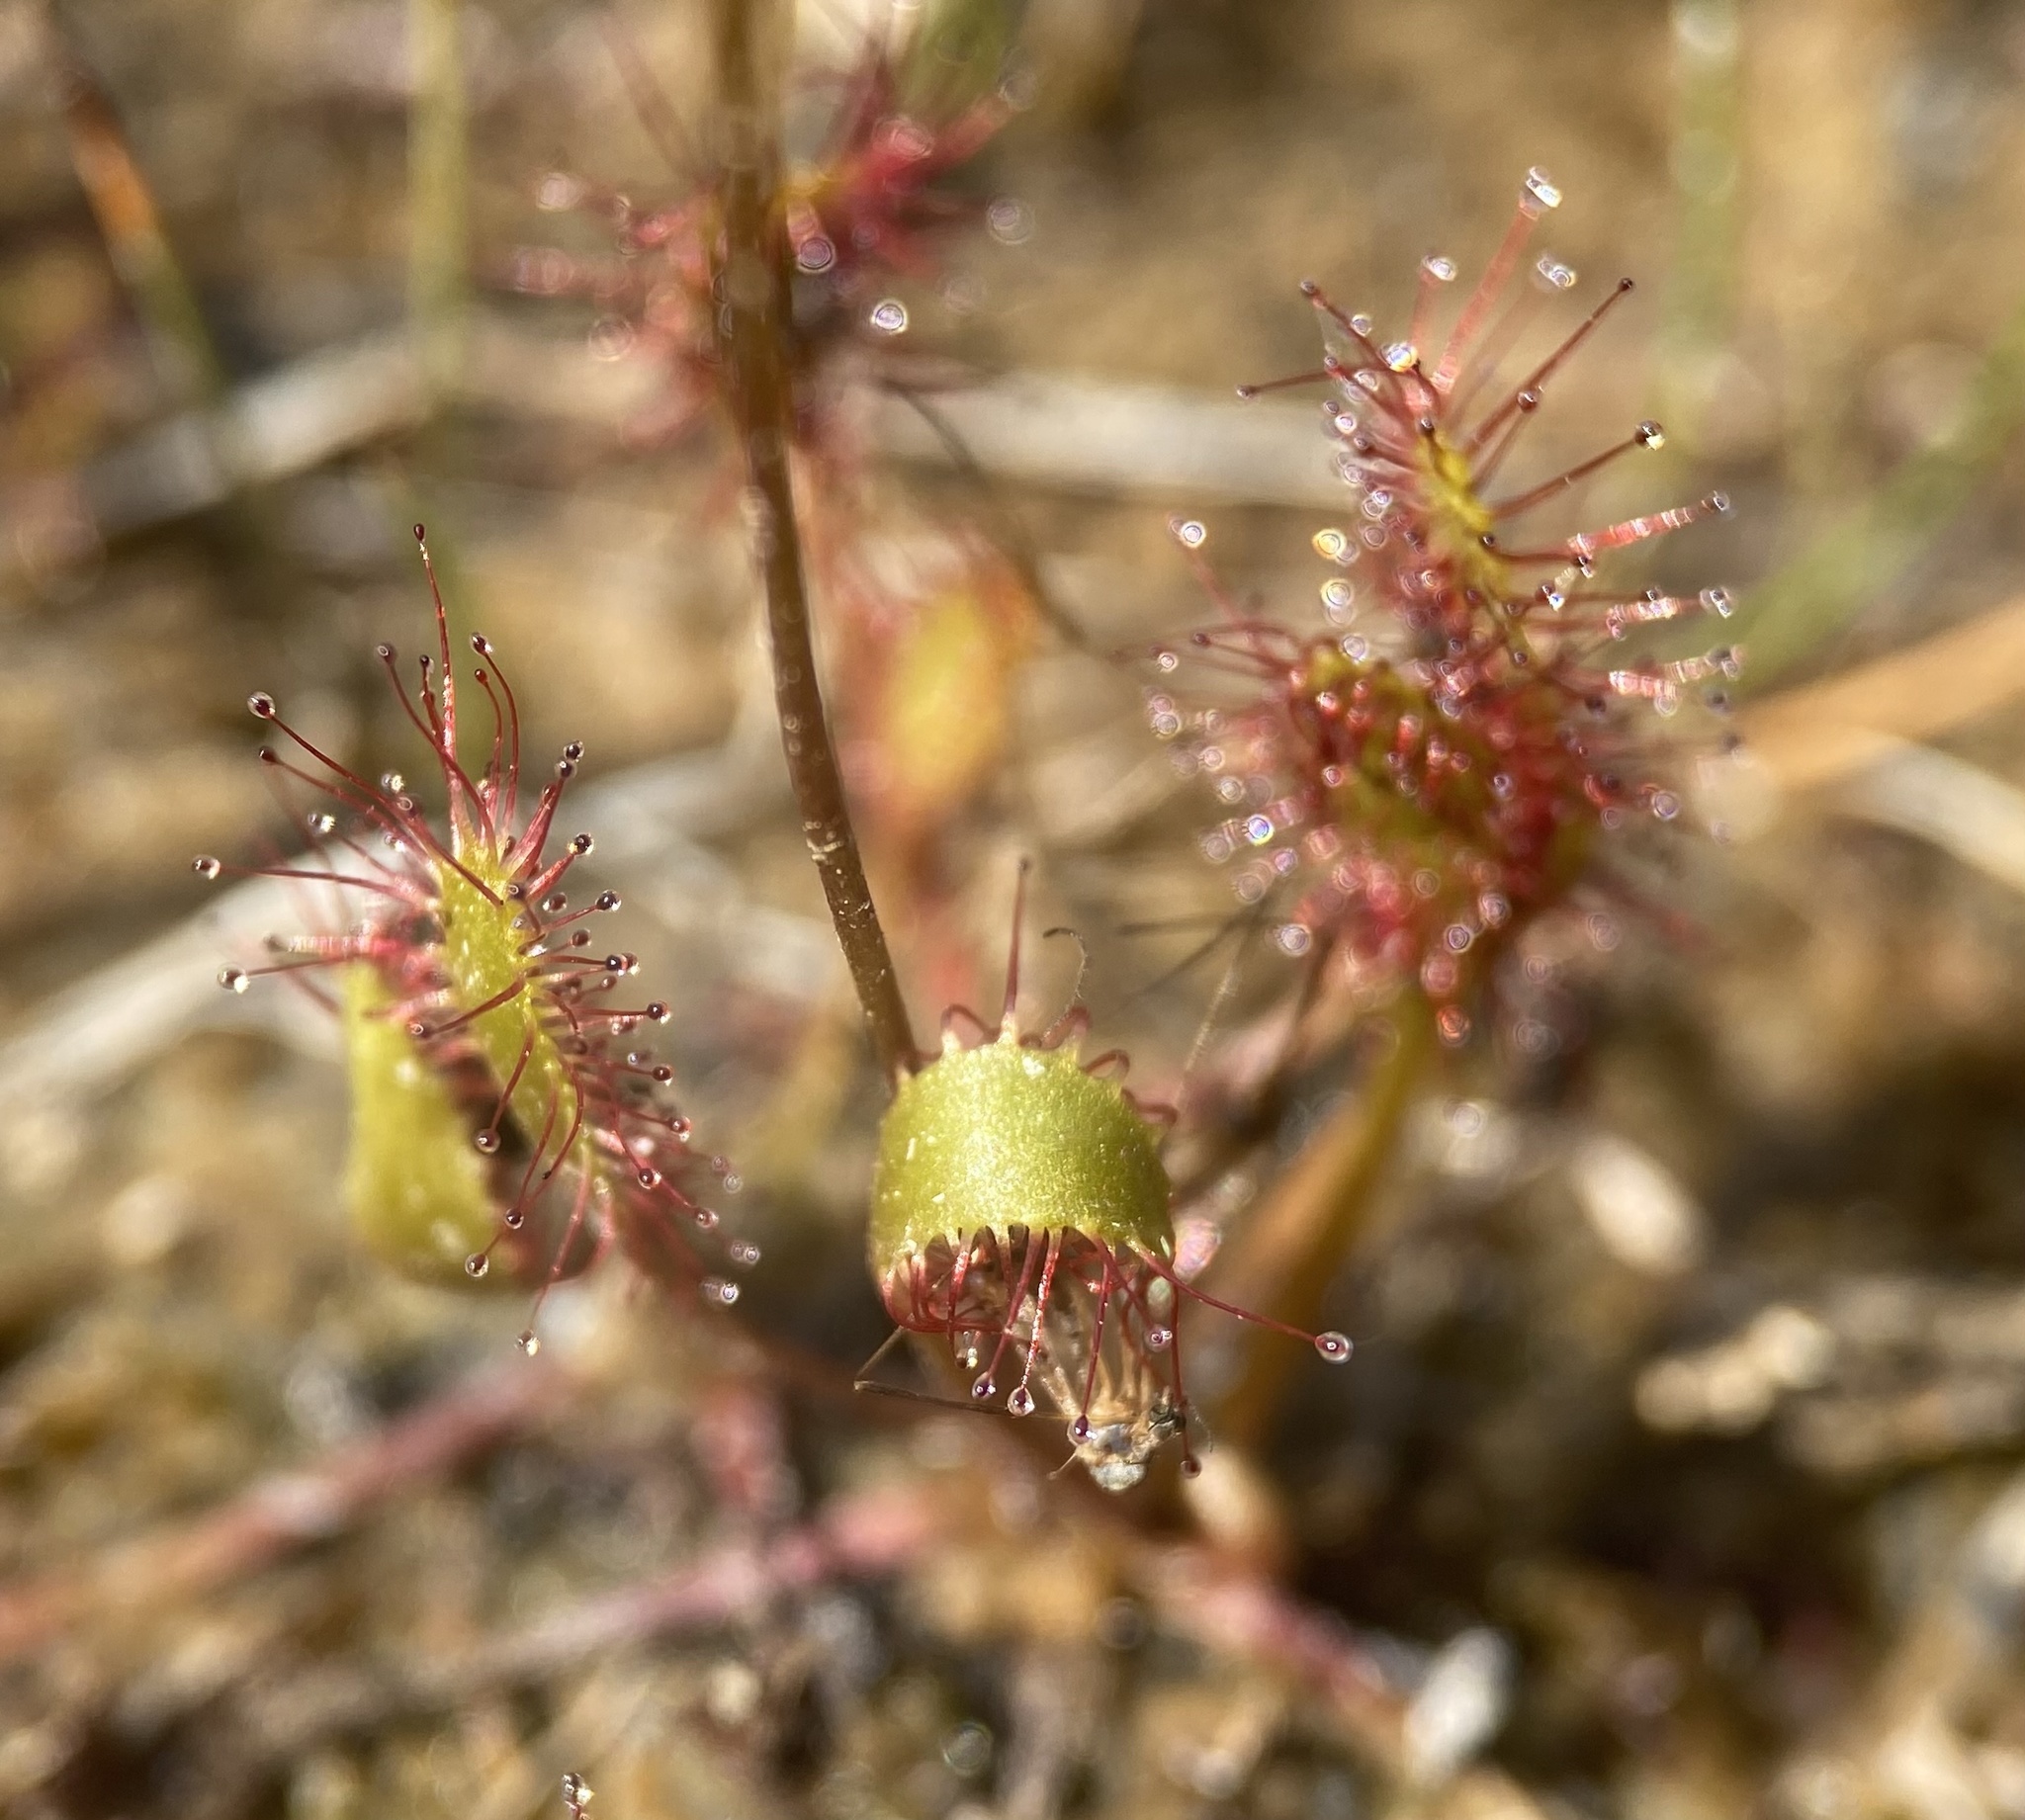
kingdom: Plantae
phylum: Tracheophyta
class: Magnoliopsida
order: Caryophyllales
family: Droseraceae
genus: Drosera
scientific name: Drosera anglica
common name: Great sundew
